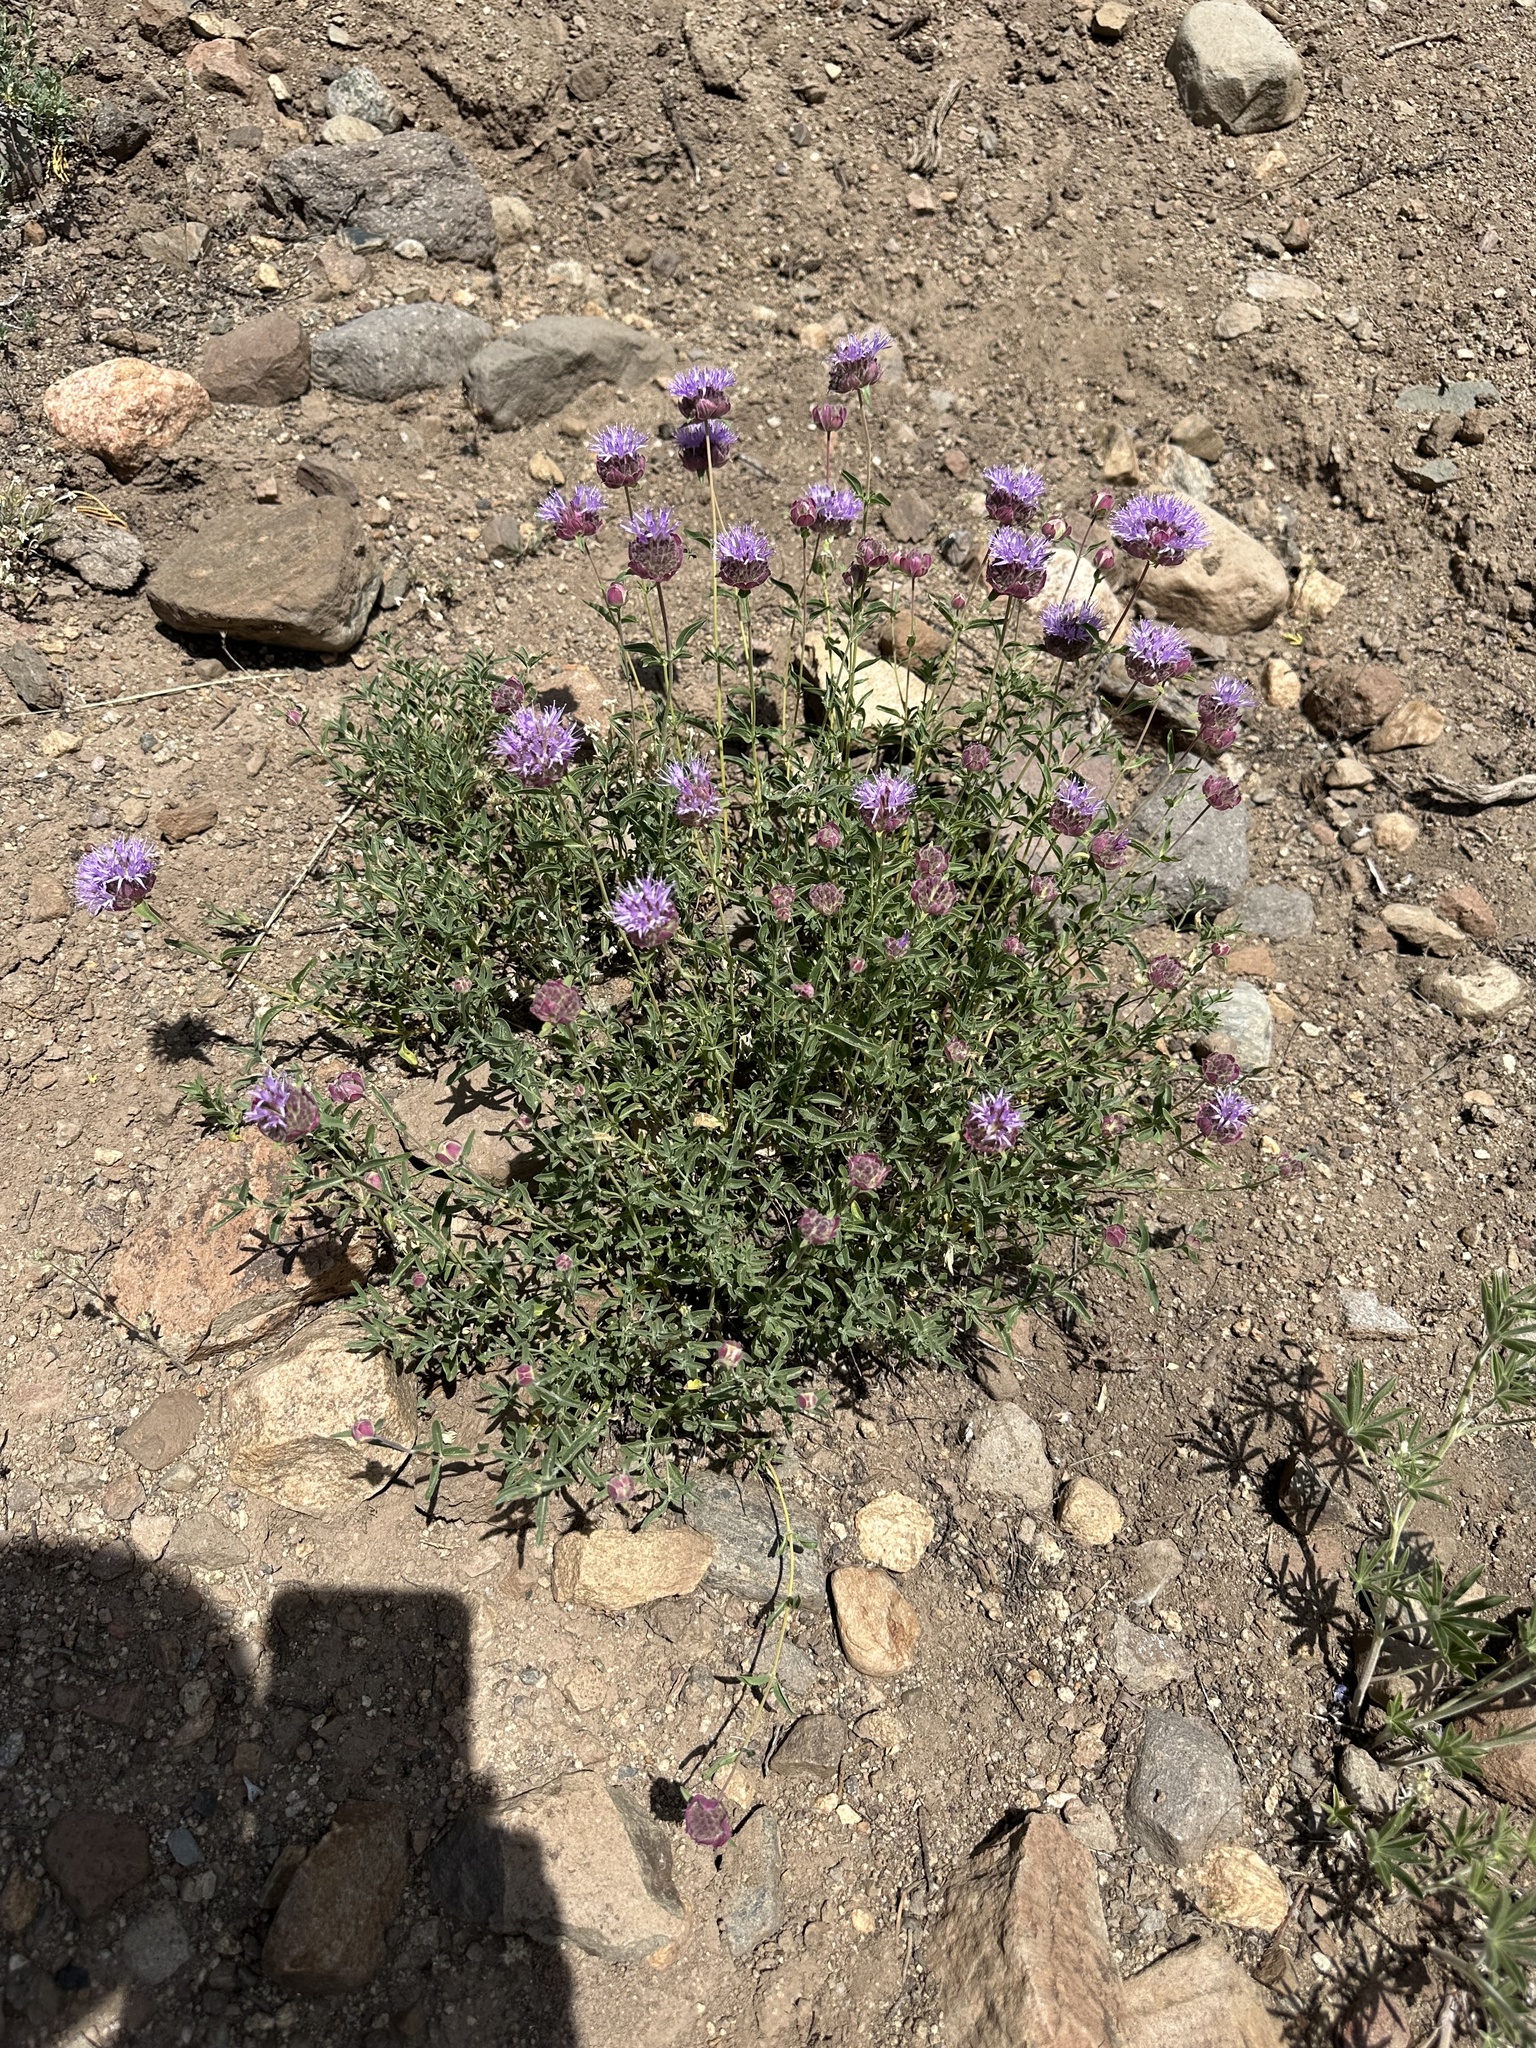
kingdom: Plantae
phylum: Tracheophyta
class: Magnoliopsida
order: Lamiales
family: Lamiaceae
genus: Monardella
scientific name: Monardella odoratissima
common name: Pacific monardella
